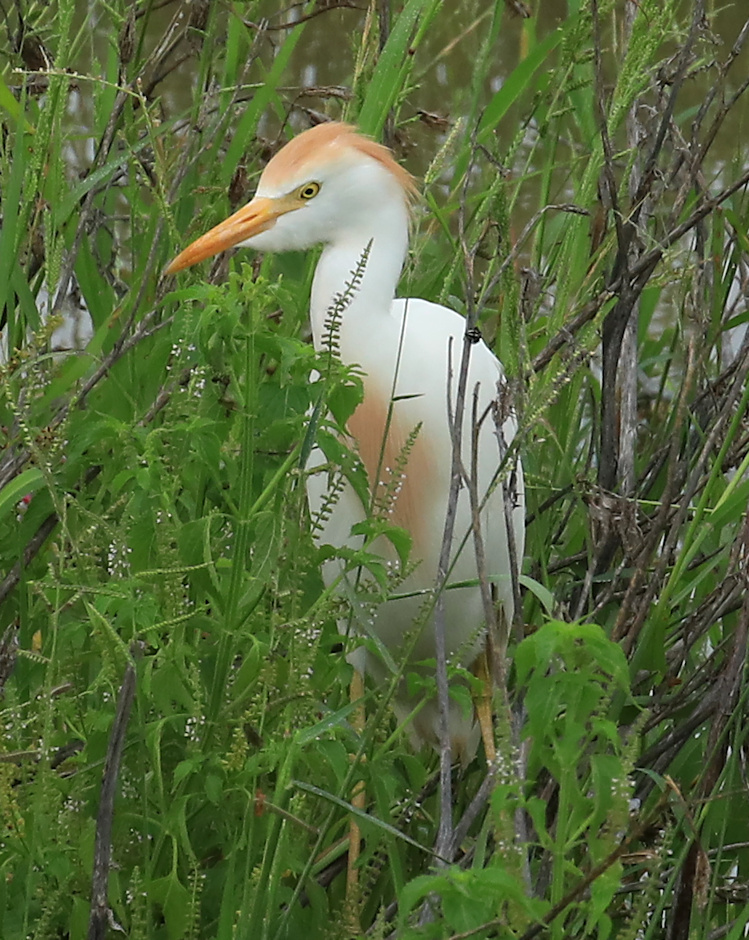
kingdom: Animalia
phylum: Chordata
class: Aves
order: Pelecaniformes
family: Ardeidae
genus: Bubulcus
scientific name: Bubulcus ibis
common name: Cattle egret
